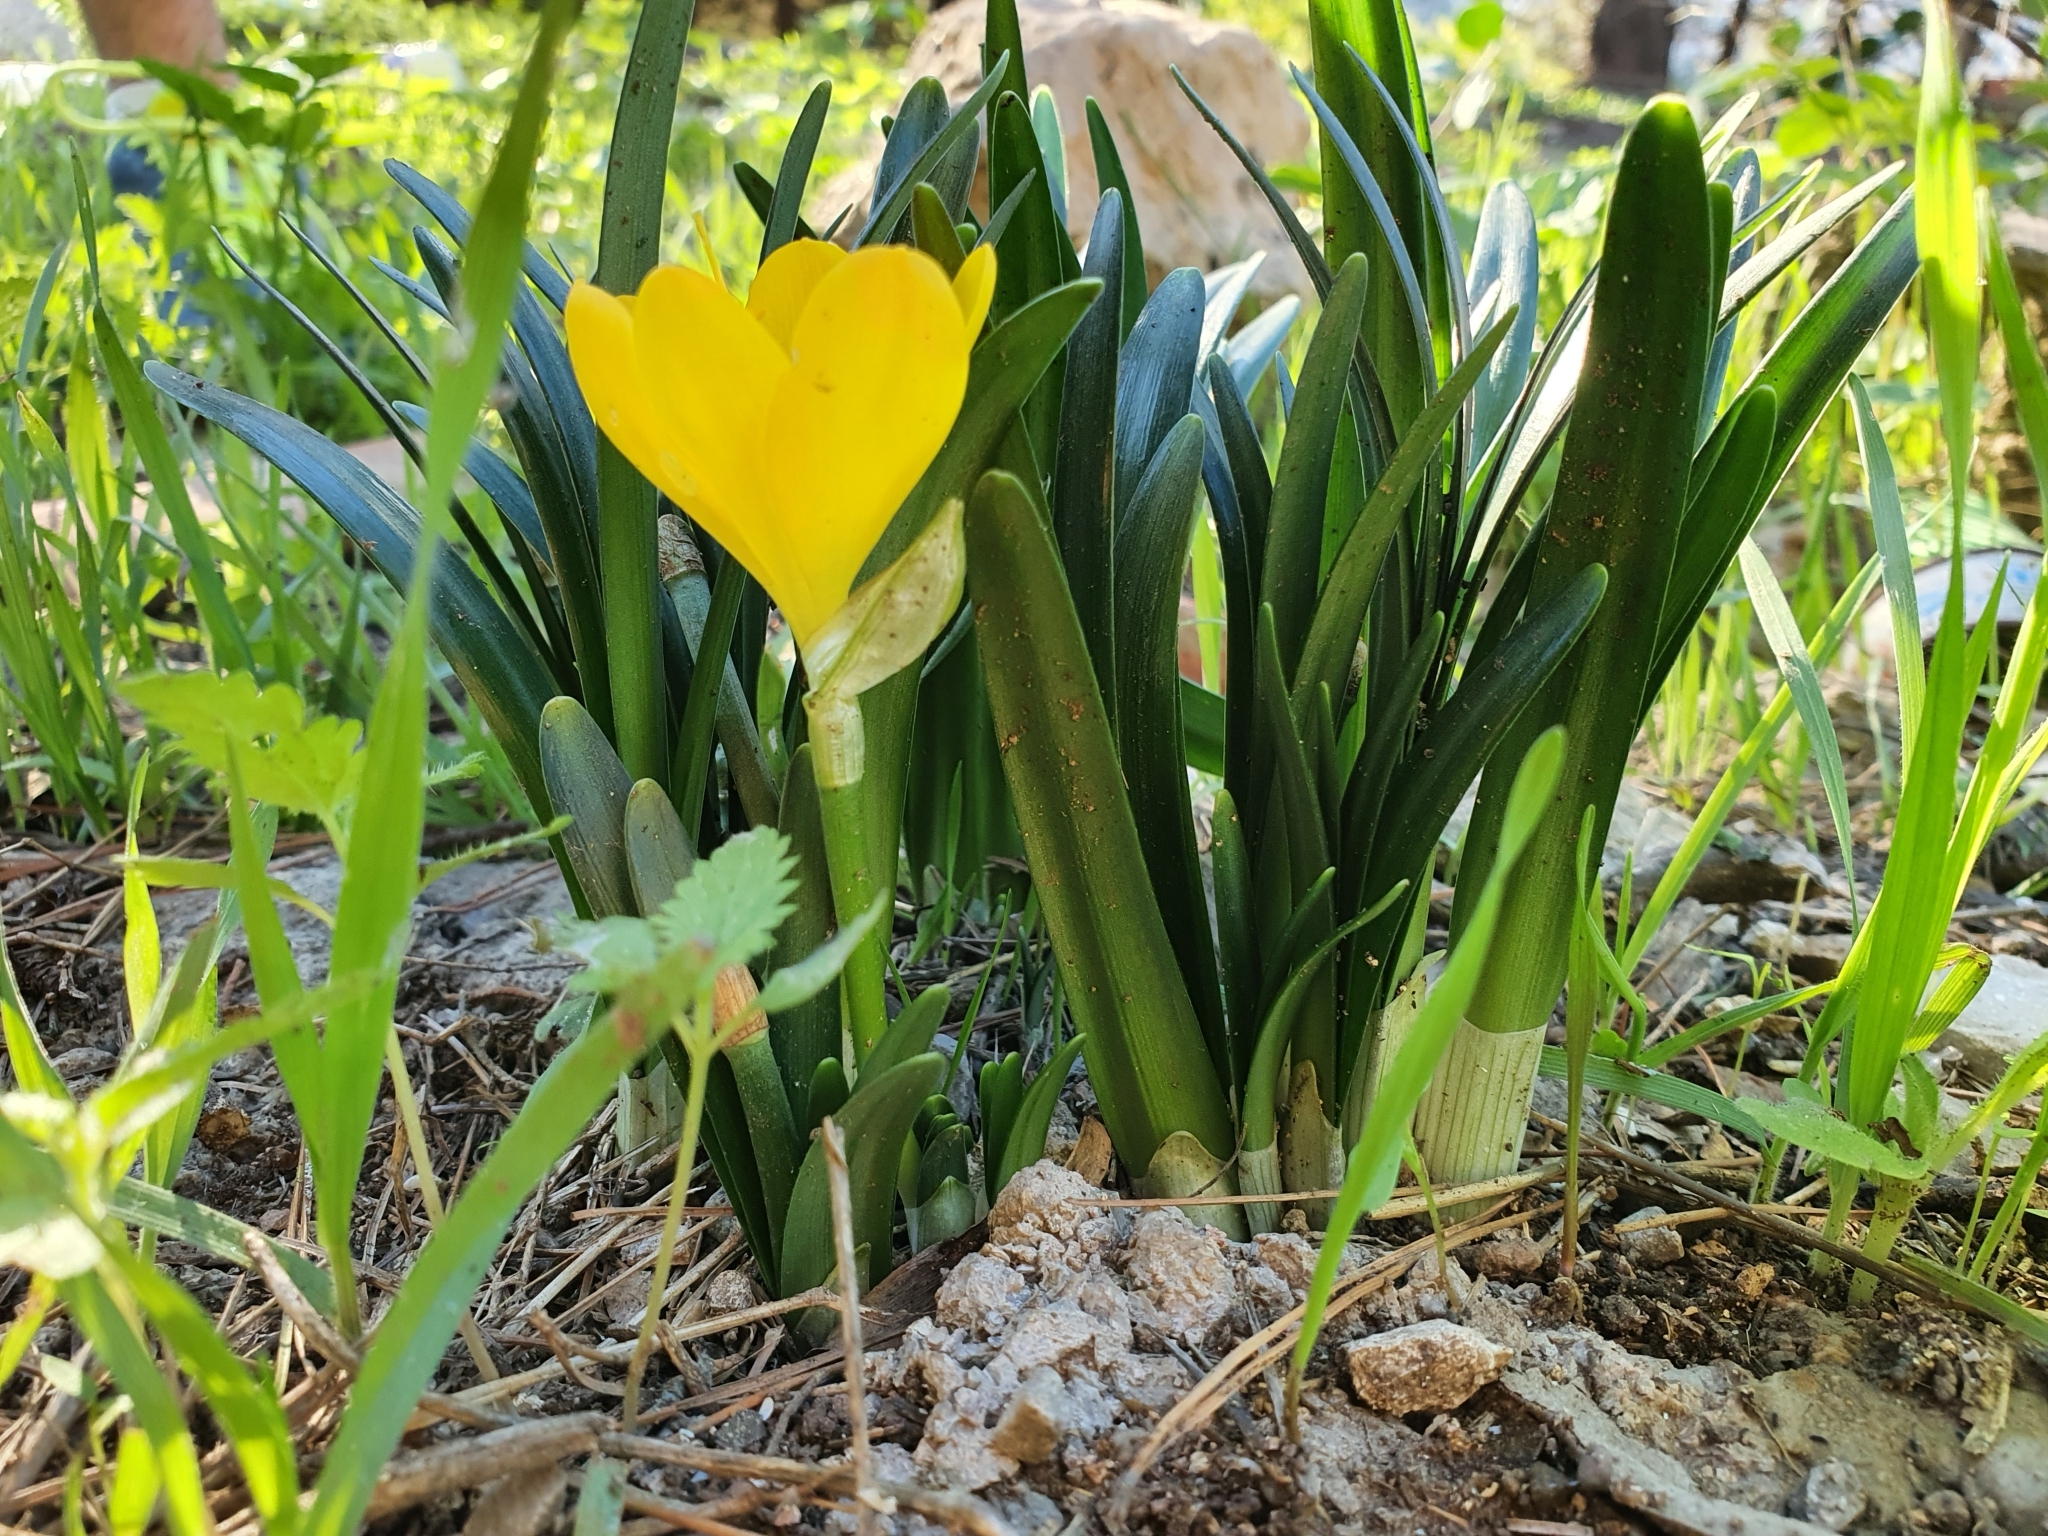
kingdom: Plantae
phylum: Tracheophyta
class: Liliopsida
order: Asparagales
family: Amaryllidaceae
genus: Sternbergia
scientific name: Sternbergia lutea
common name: Winter daffodil
